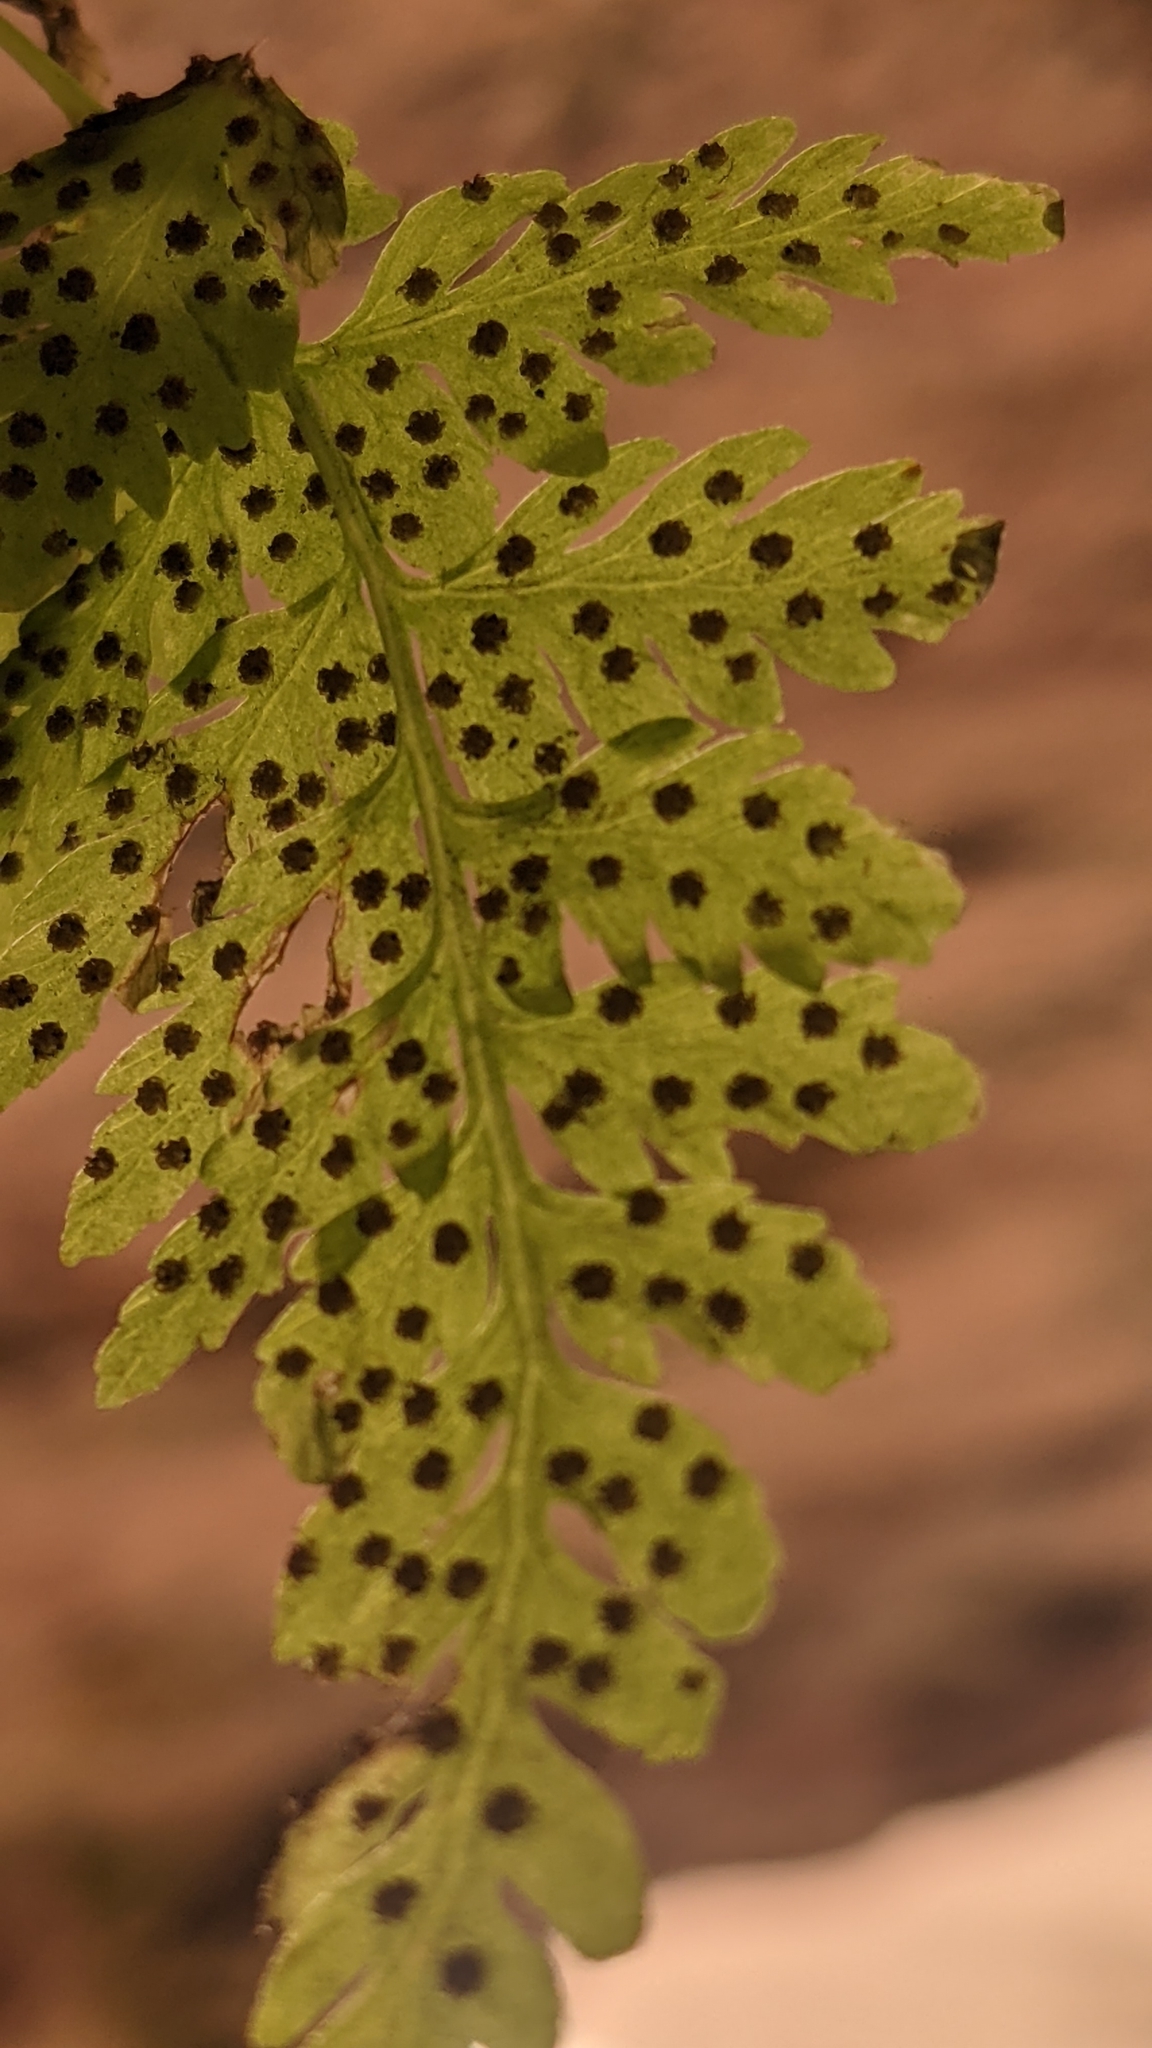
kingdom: Plantae
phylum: Tracheophyta
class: Polypodiopsida
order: Polypodiales
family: Cystopteridaceae
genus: Cystopteris
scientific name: Cystopteris fragilis
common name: Brittle bladder fern
